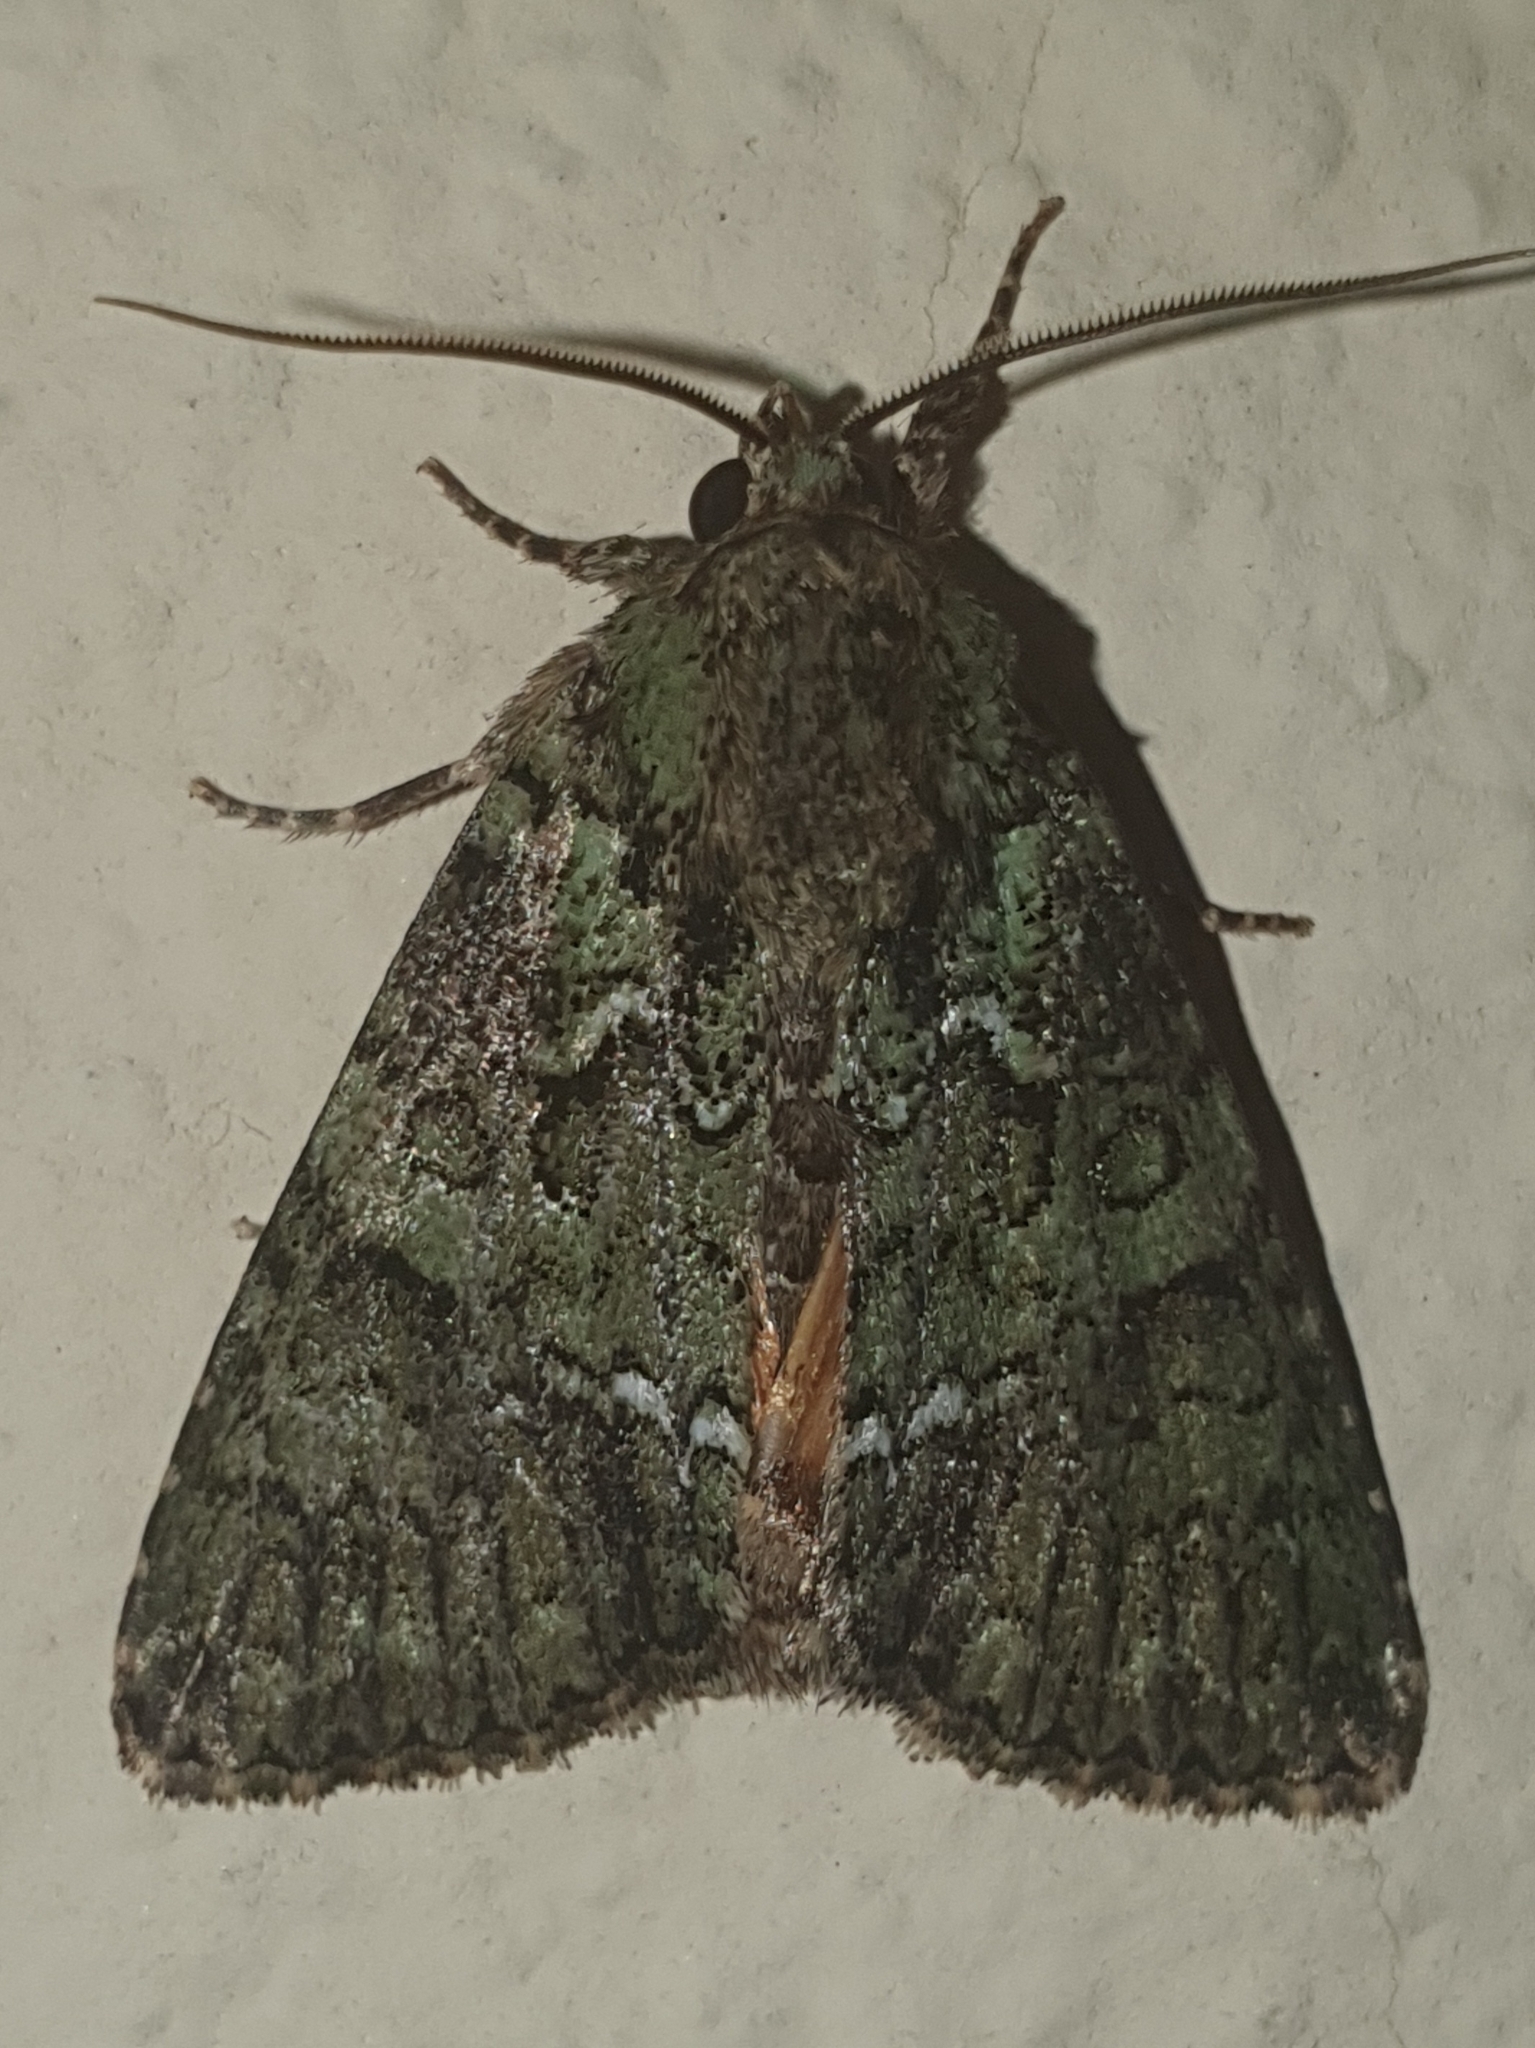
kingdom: Animalia
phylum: Arthropoda
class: Insecta
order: Lepidoptera
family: Noctuidae
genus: Polyphaenis
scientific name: Polyphaenis sericata
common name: Guernsey underwing
